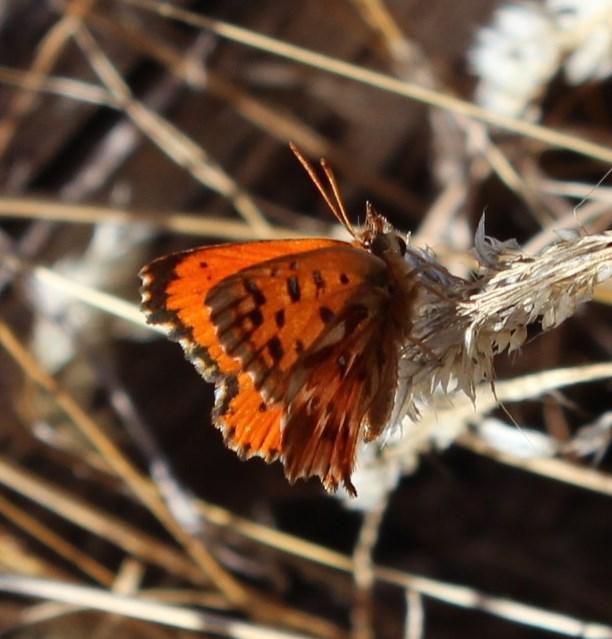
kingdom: Animalia
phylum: Arthropoda
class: Insecta
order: Lepidoptera
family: Lycaenidae
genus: Chrysoritis
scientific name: Chrysoritis
